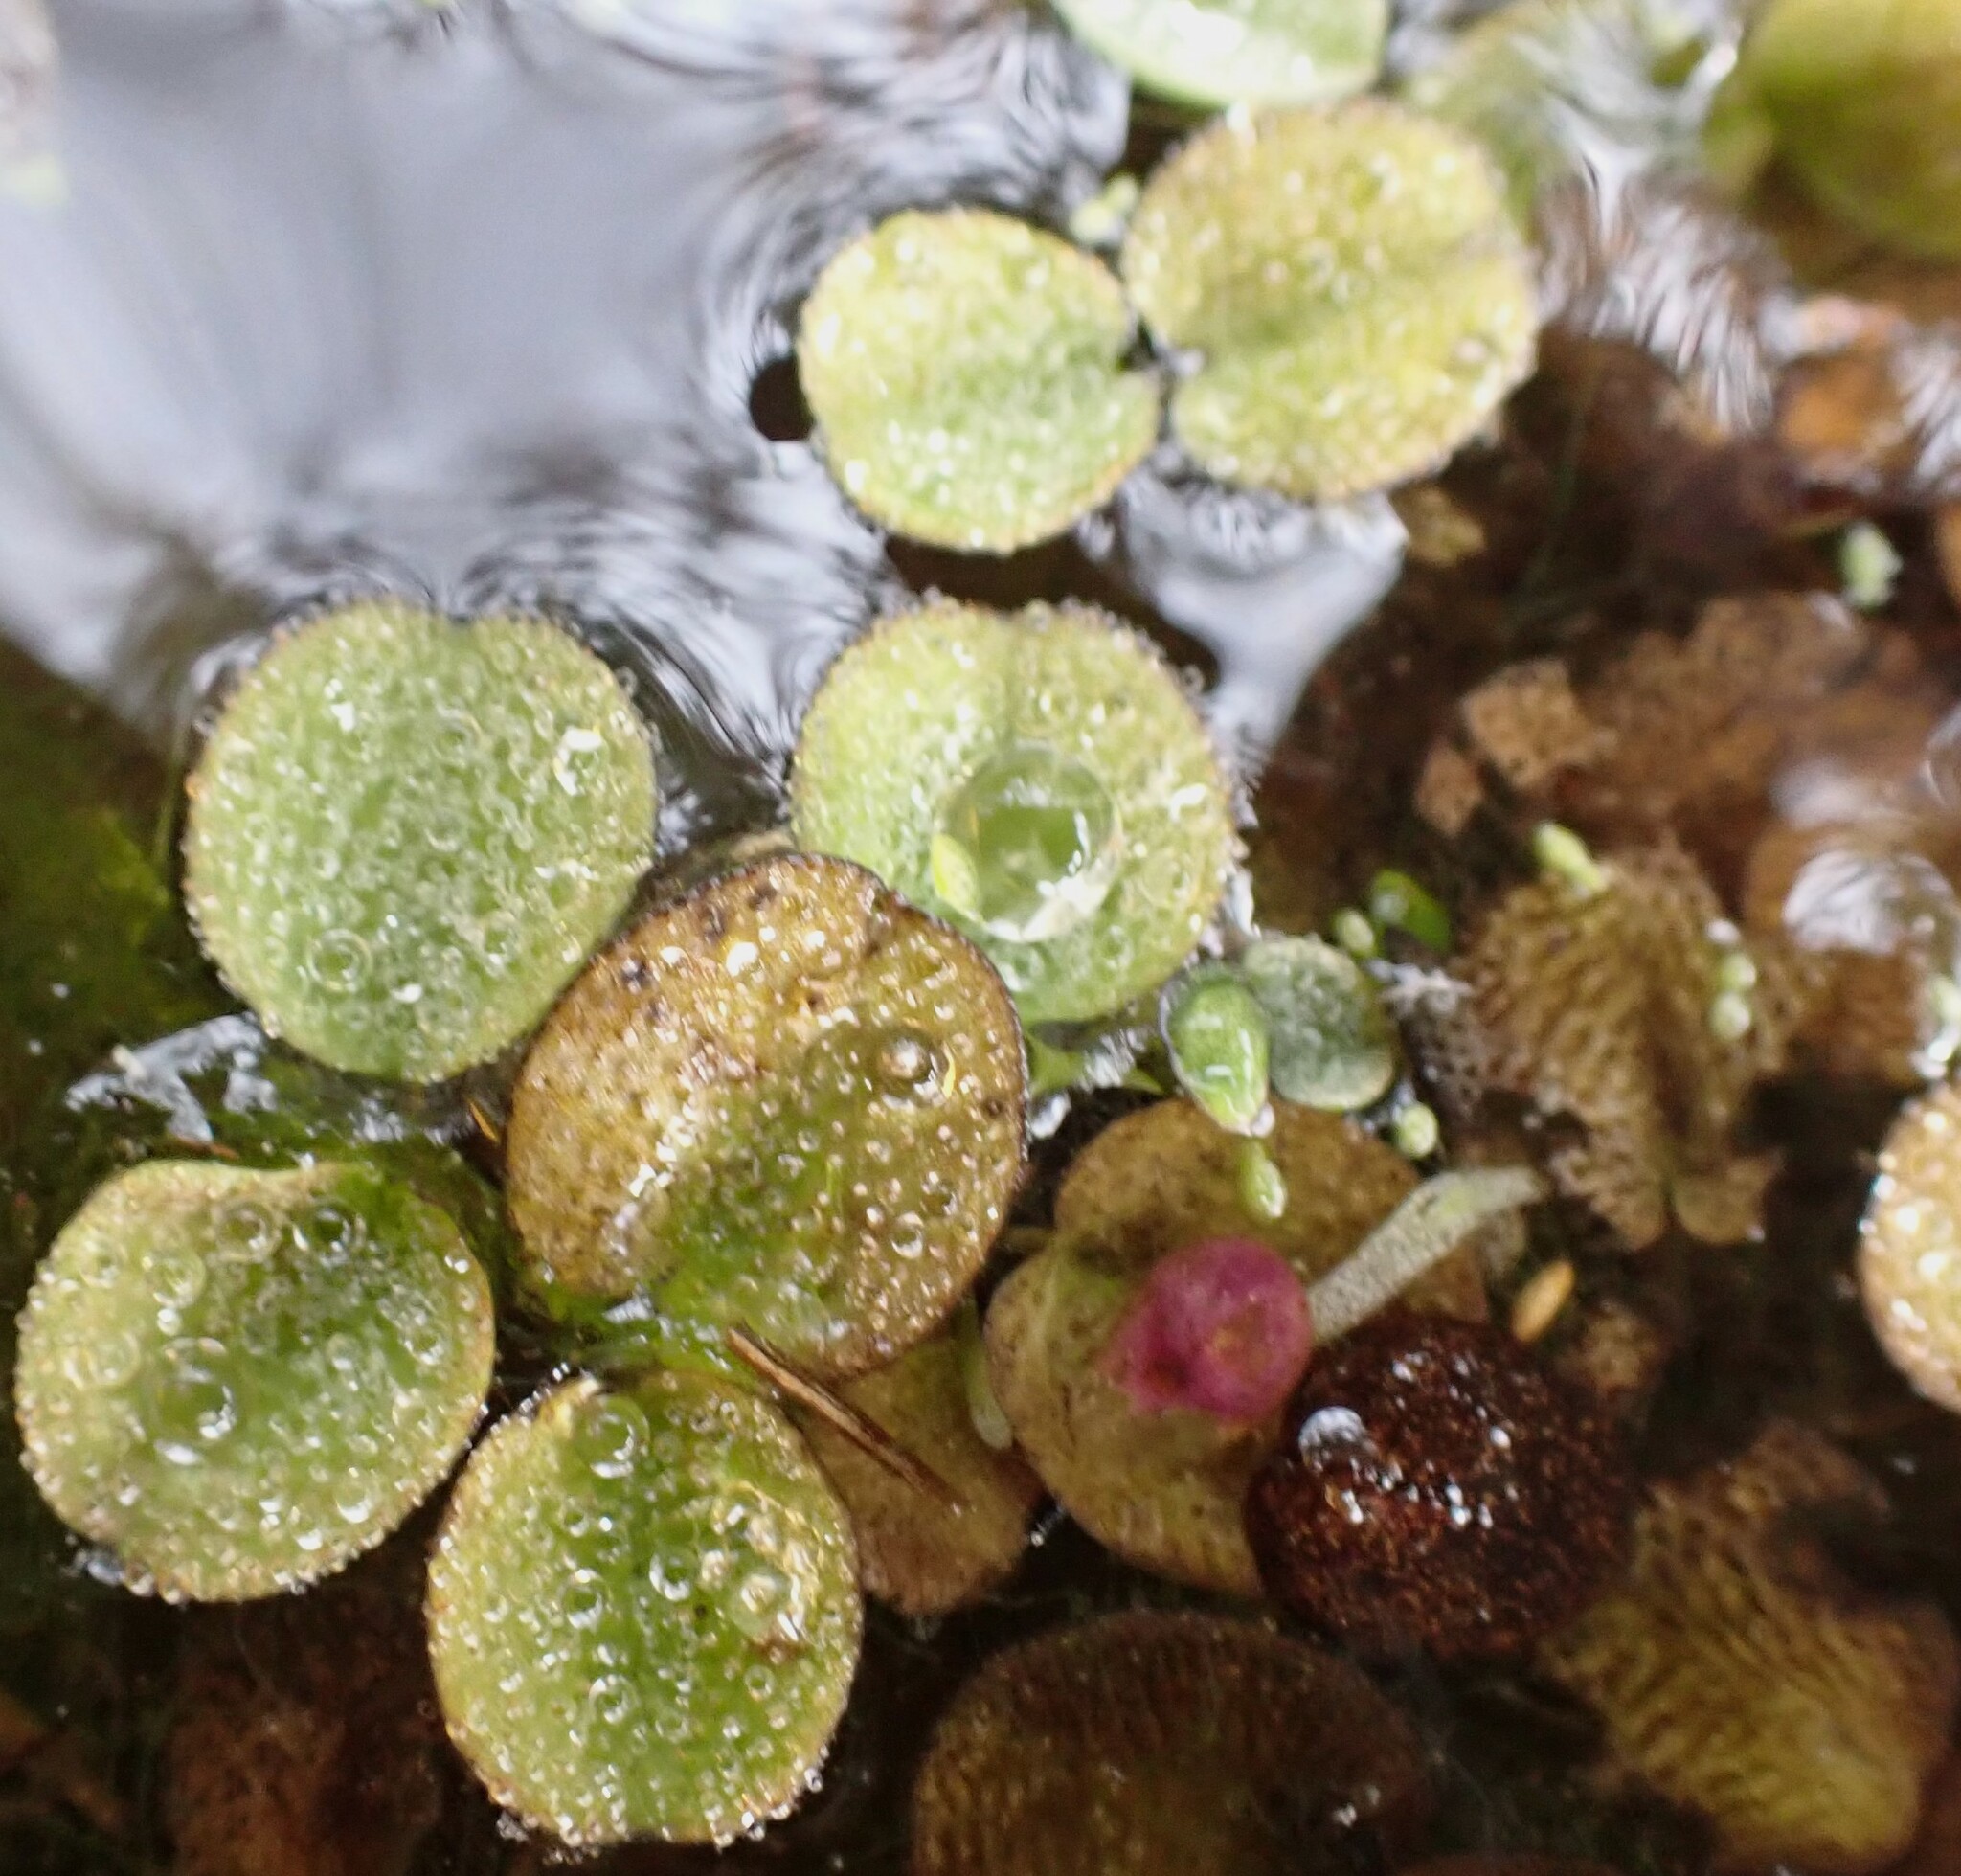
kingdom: Plantae
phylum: Tracheophyta
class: Polypodiopsida
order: Salviniales
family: Salviniaceae
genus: Salvinia
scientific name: Salvinia minima
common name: Water spangles
